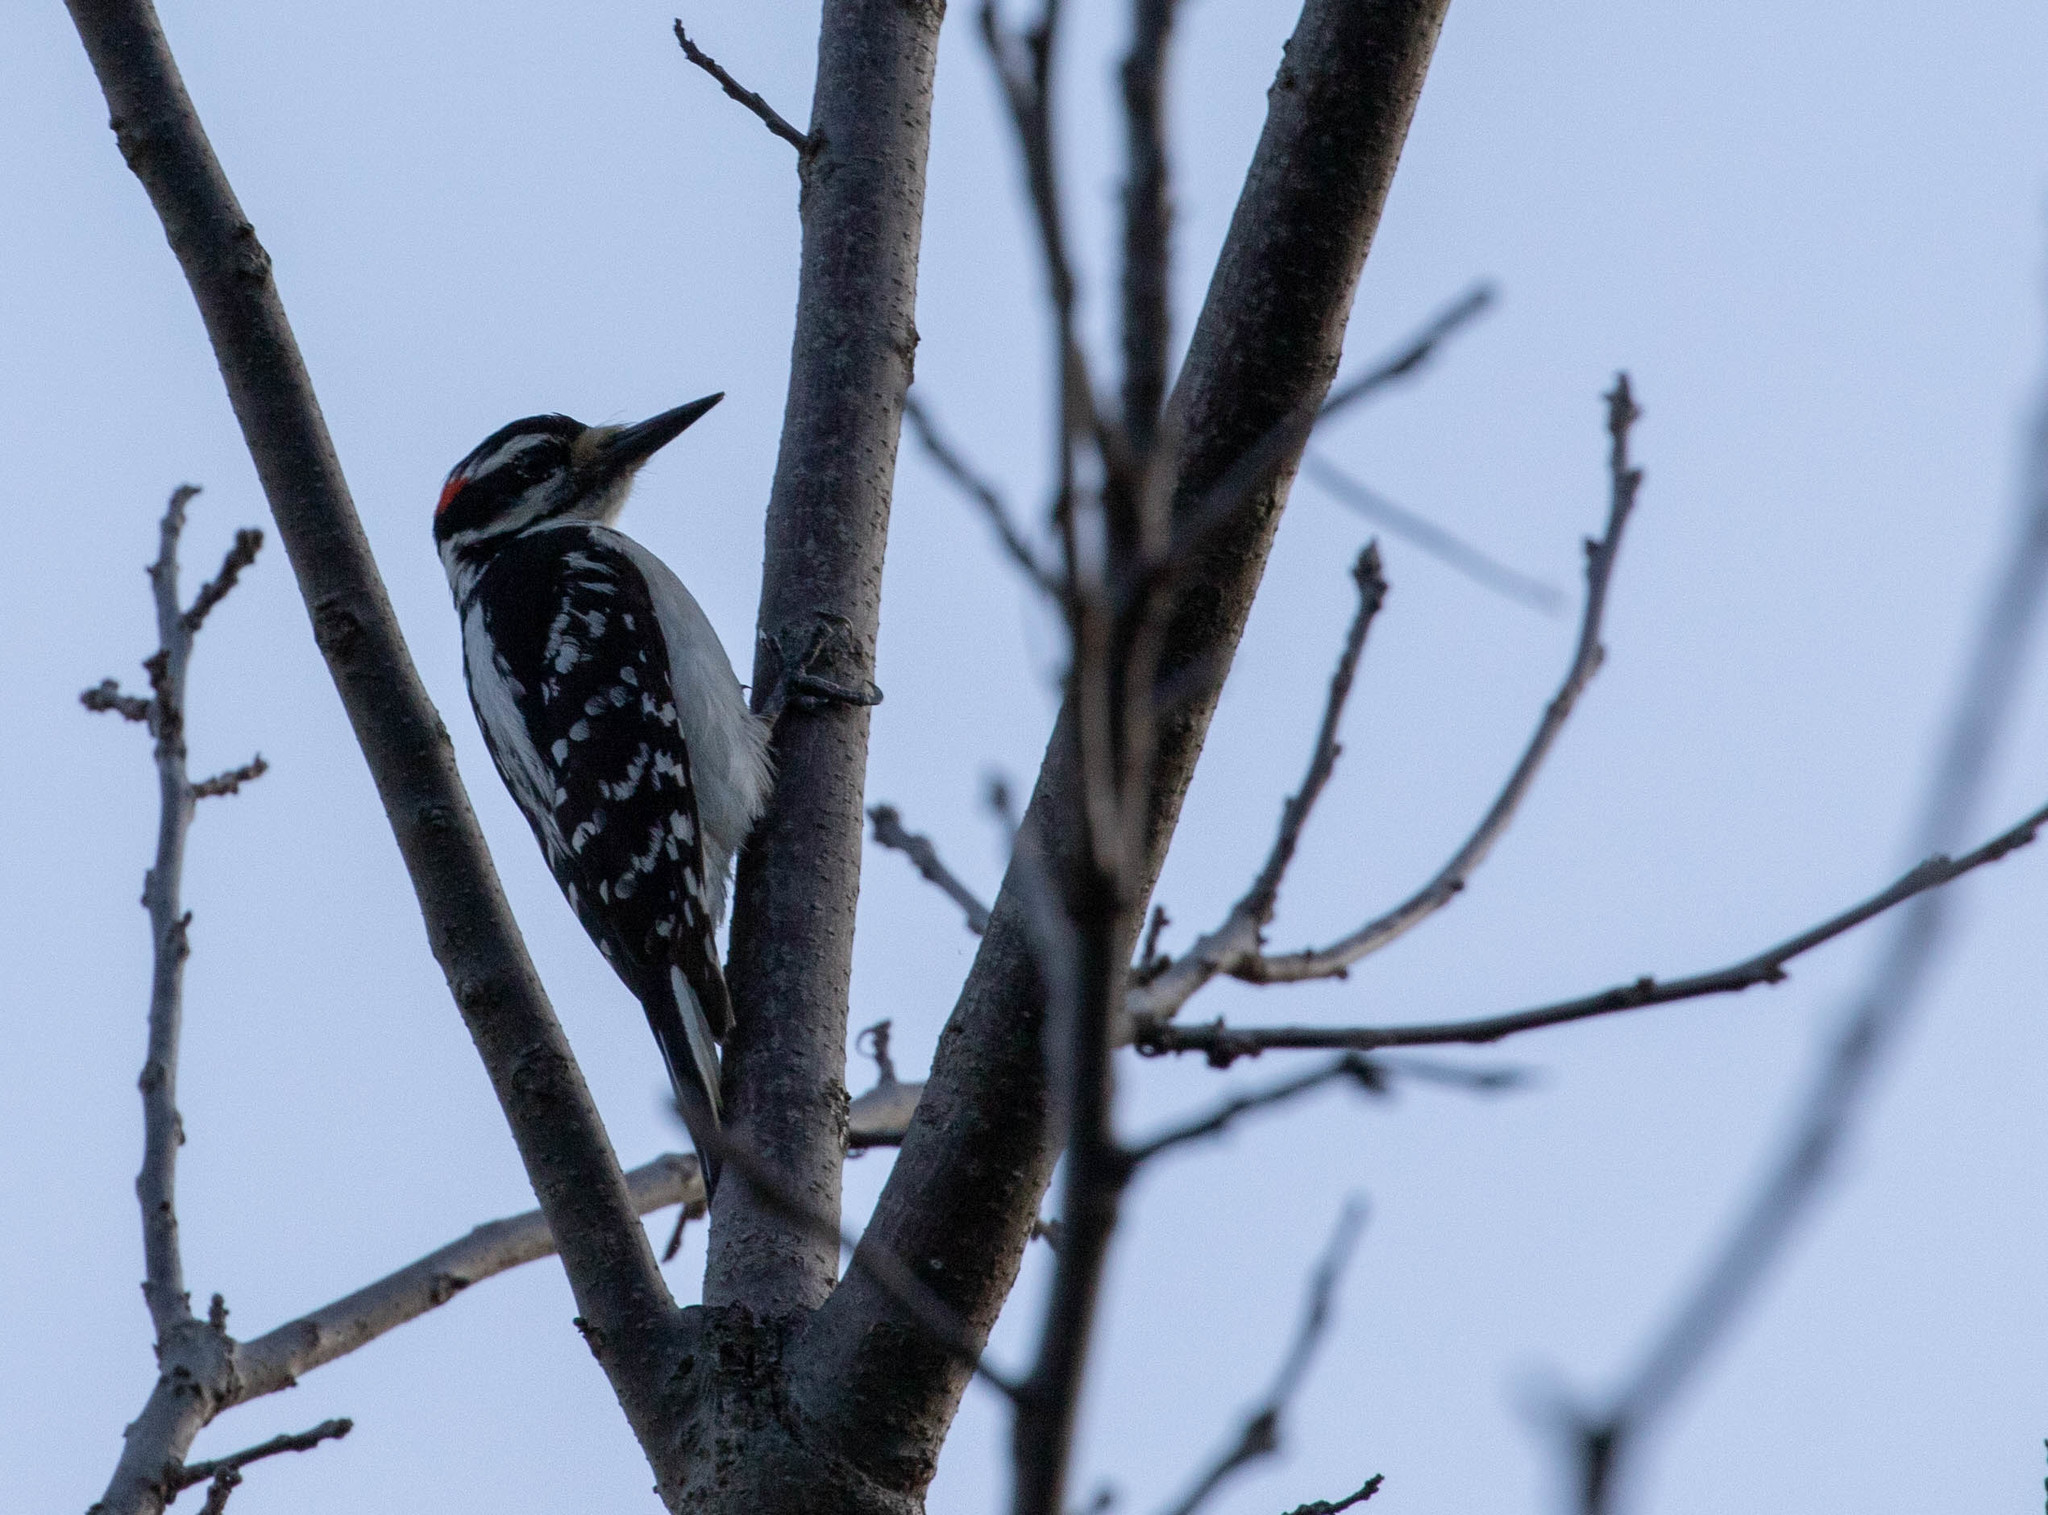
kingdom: Animalia
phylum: Chordata
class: Aves
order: Piciformes
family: Picidae
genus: Leuconotopicus
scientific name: Leuconotopicus villosus
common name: Hairy woodpecker
